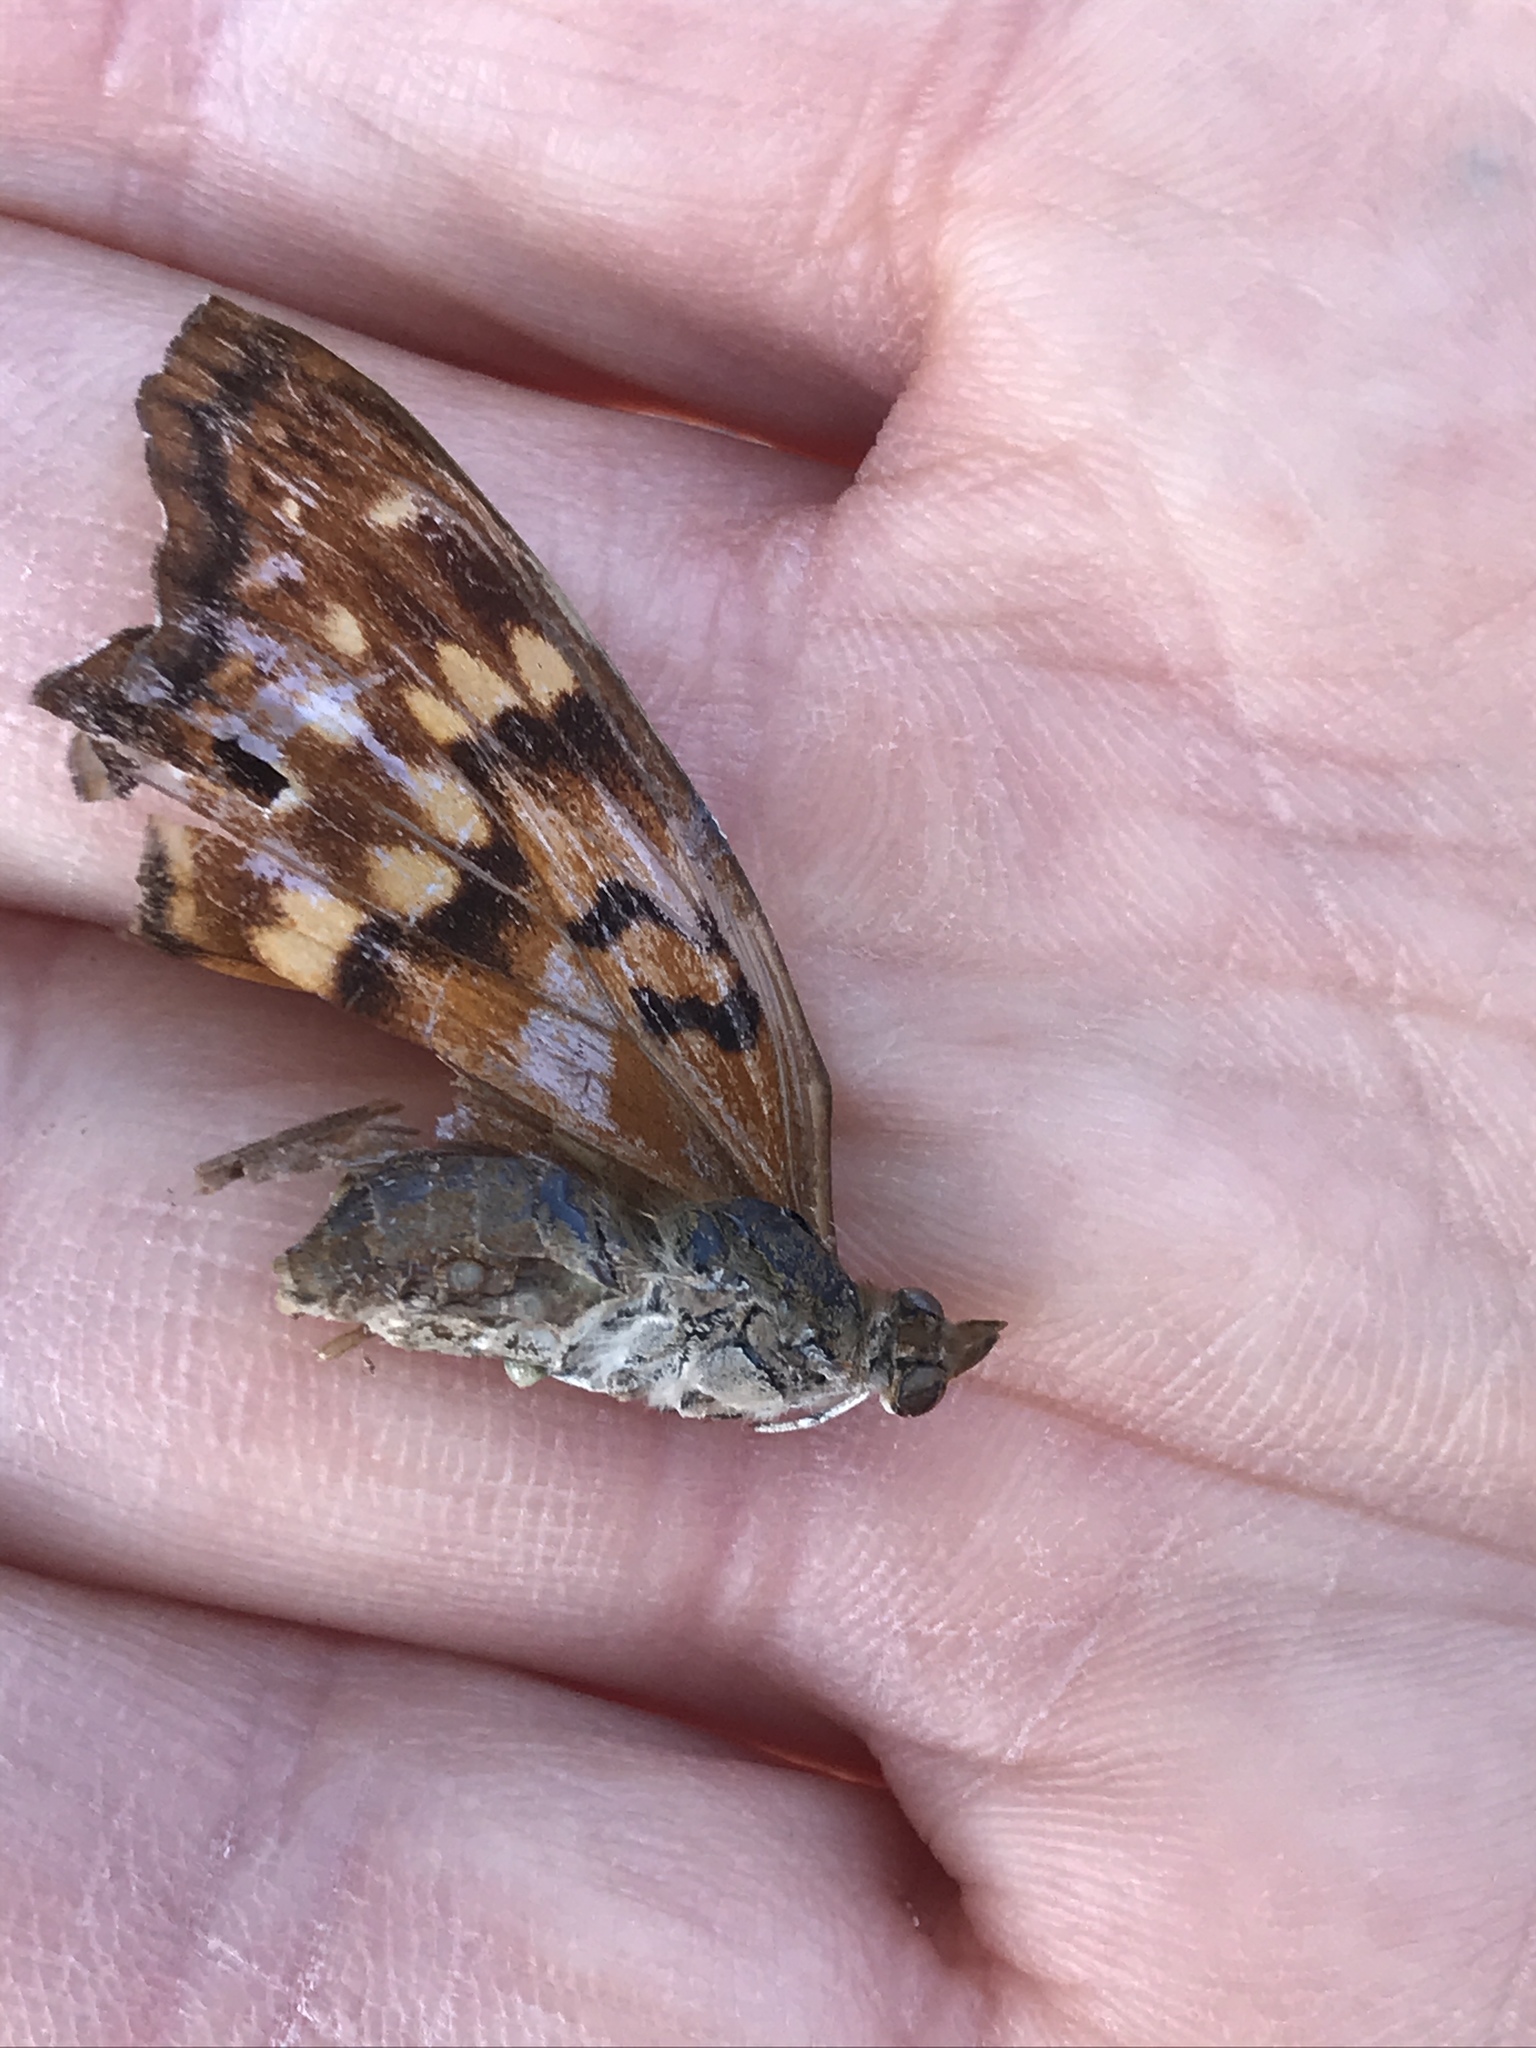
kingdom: Animalia
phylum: Arthropoda
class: Insecta
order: Lepidoptera
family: Nymphalidae
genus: Asterocampa
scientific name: Asterocampa clyton
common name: Tawny emperor
